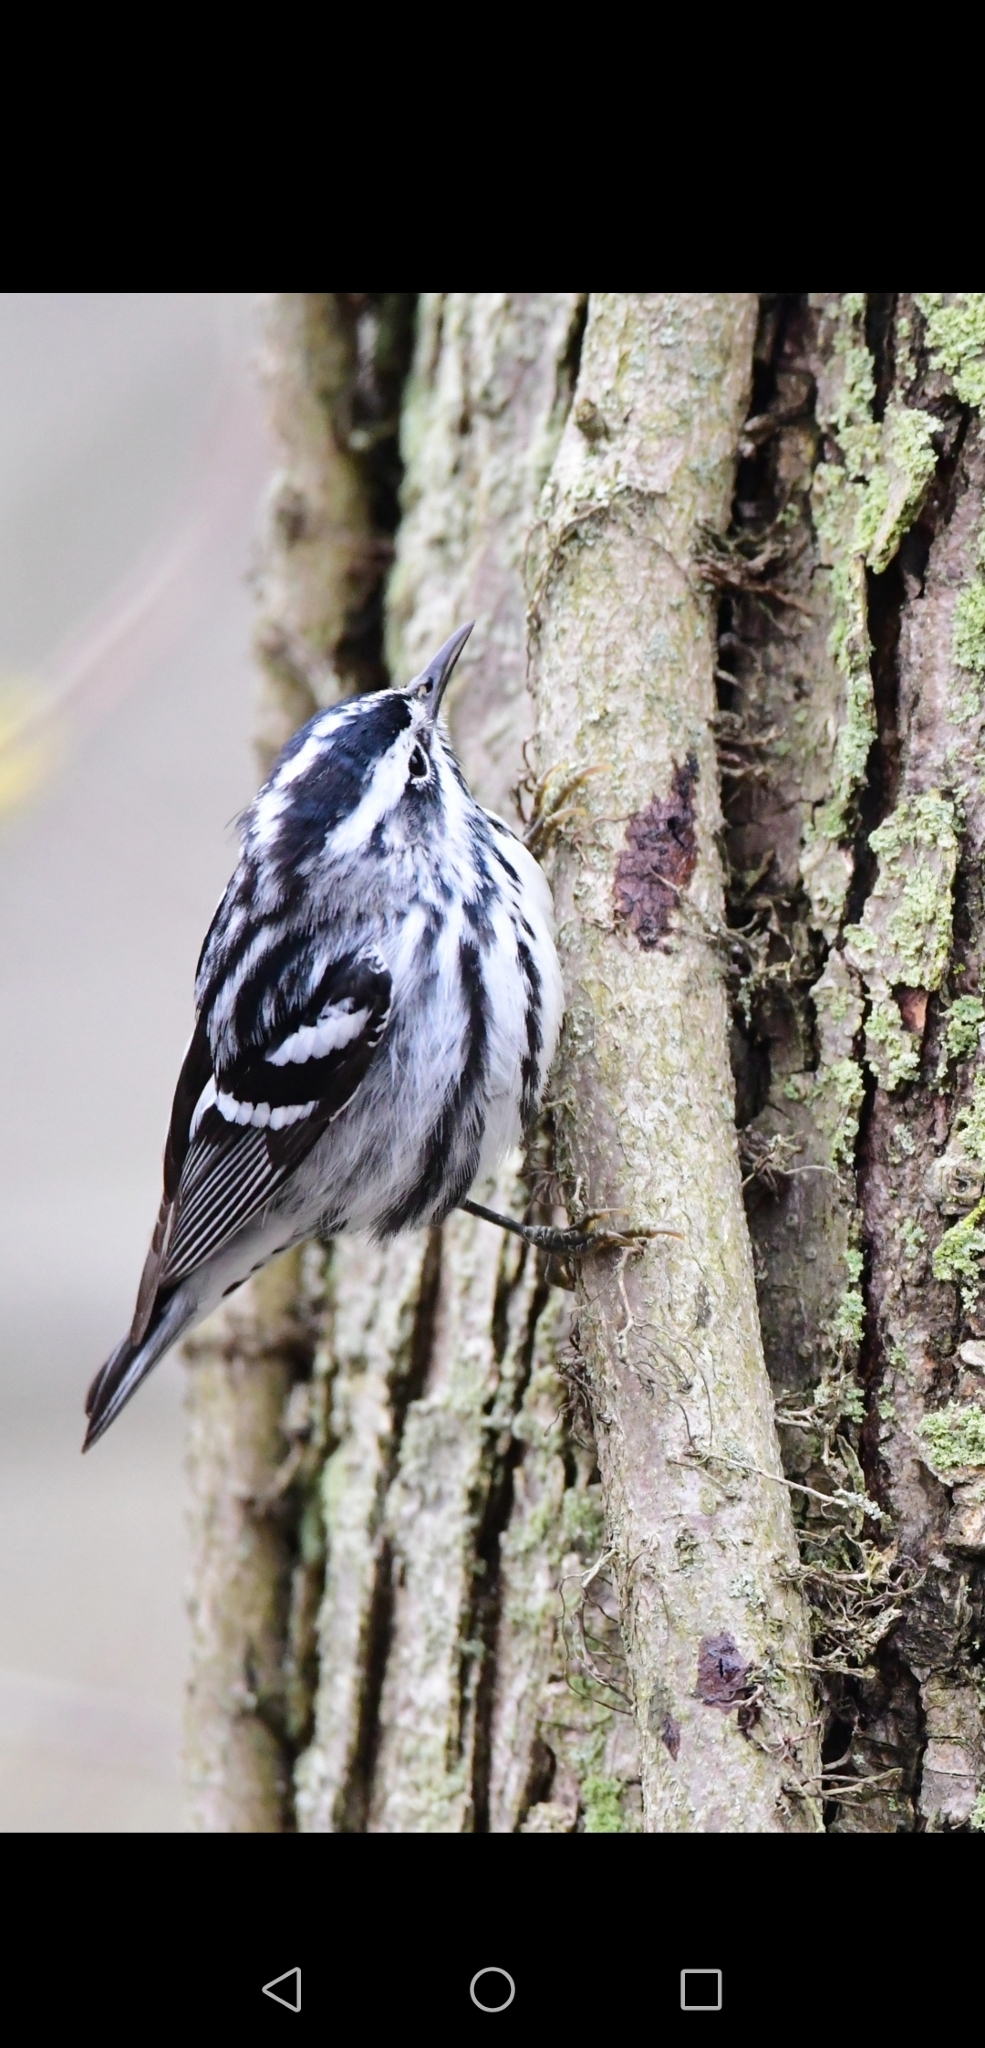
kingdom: Animalia
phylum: Chordata
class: Aves
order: Passeriformes
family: Parulidae
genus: Mniotilta
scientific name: Mniotilta varia
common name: Black-and-white warbler
